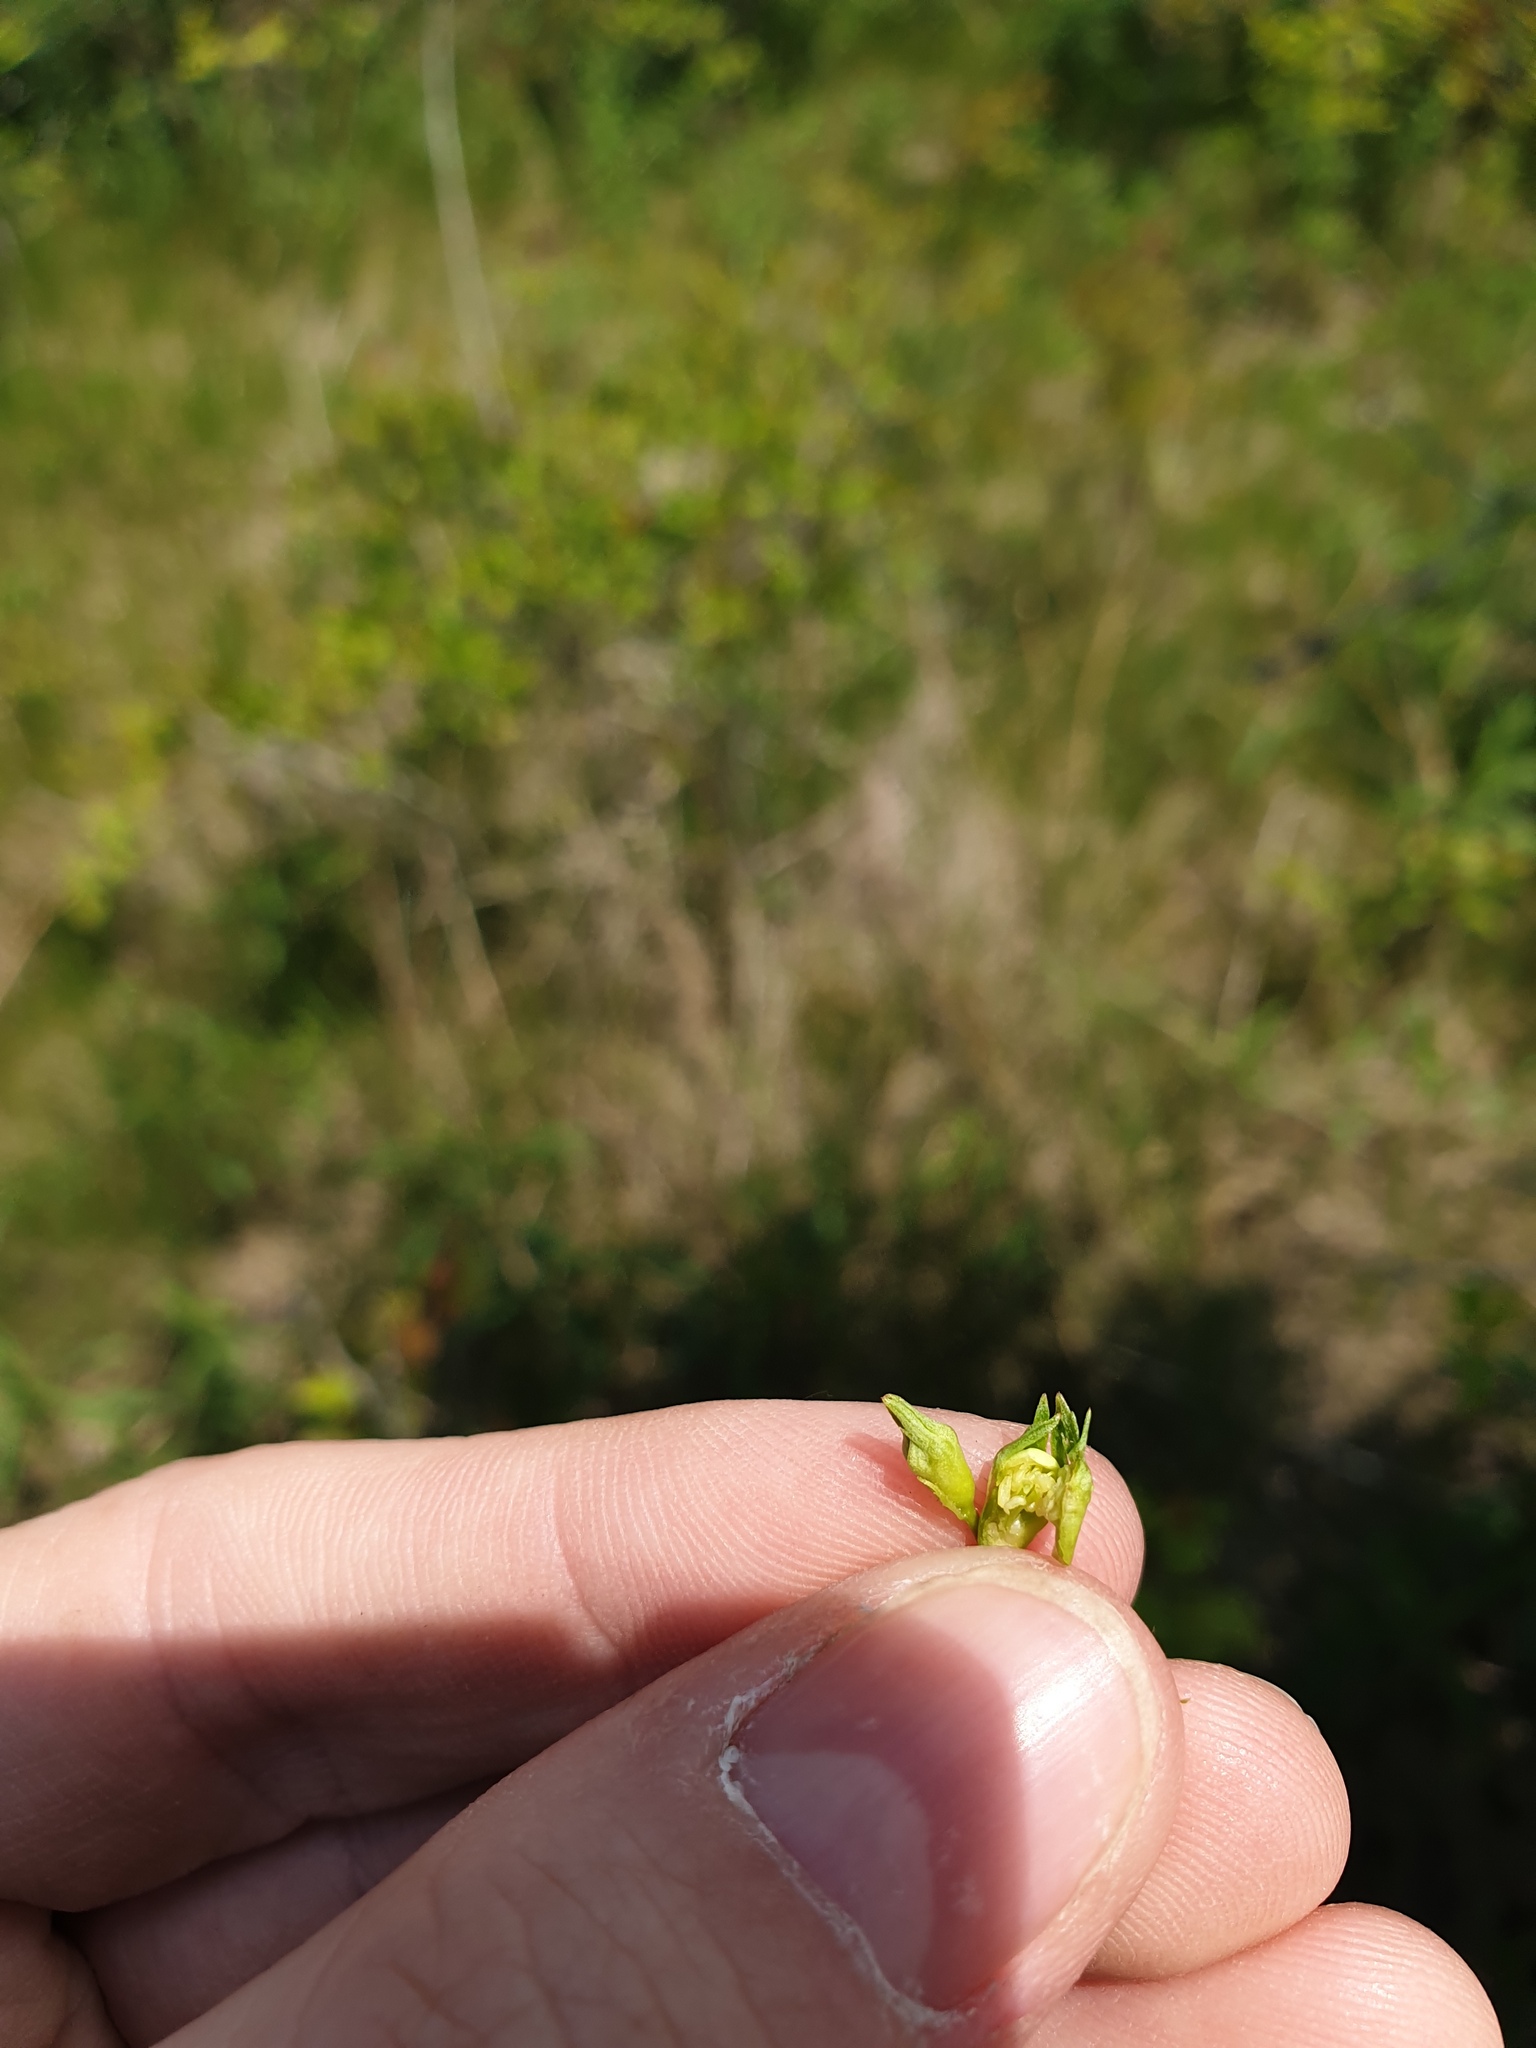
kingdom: Plantae
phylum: Tracheophyta
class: Magnoliopsida
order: Rosales
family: Rosaceae
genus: Crataegus
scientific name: Crataegus crus-galli
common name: Cockspurthorn
